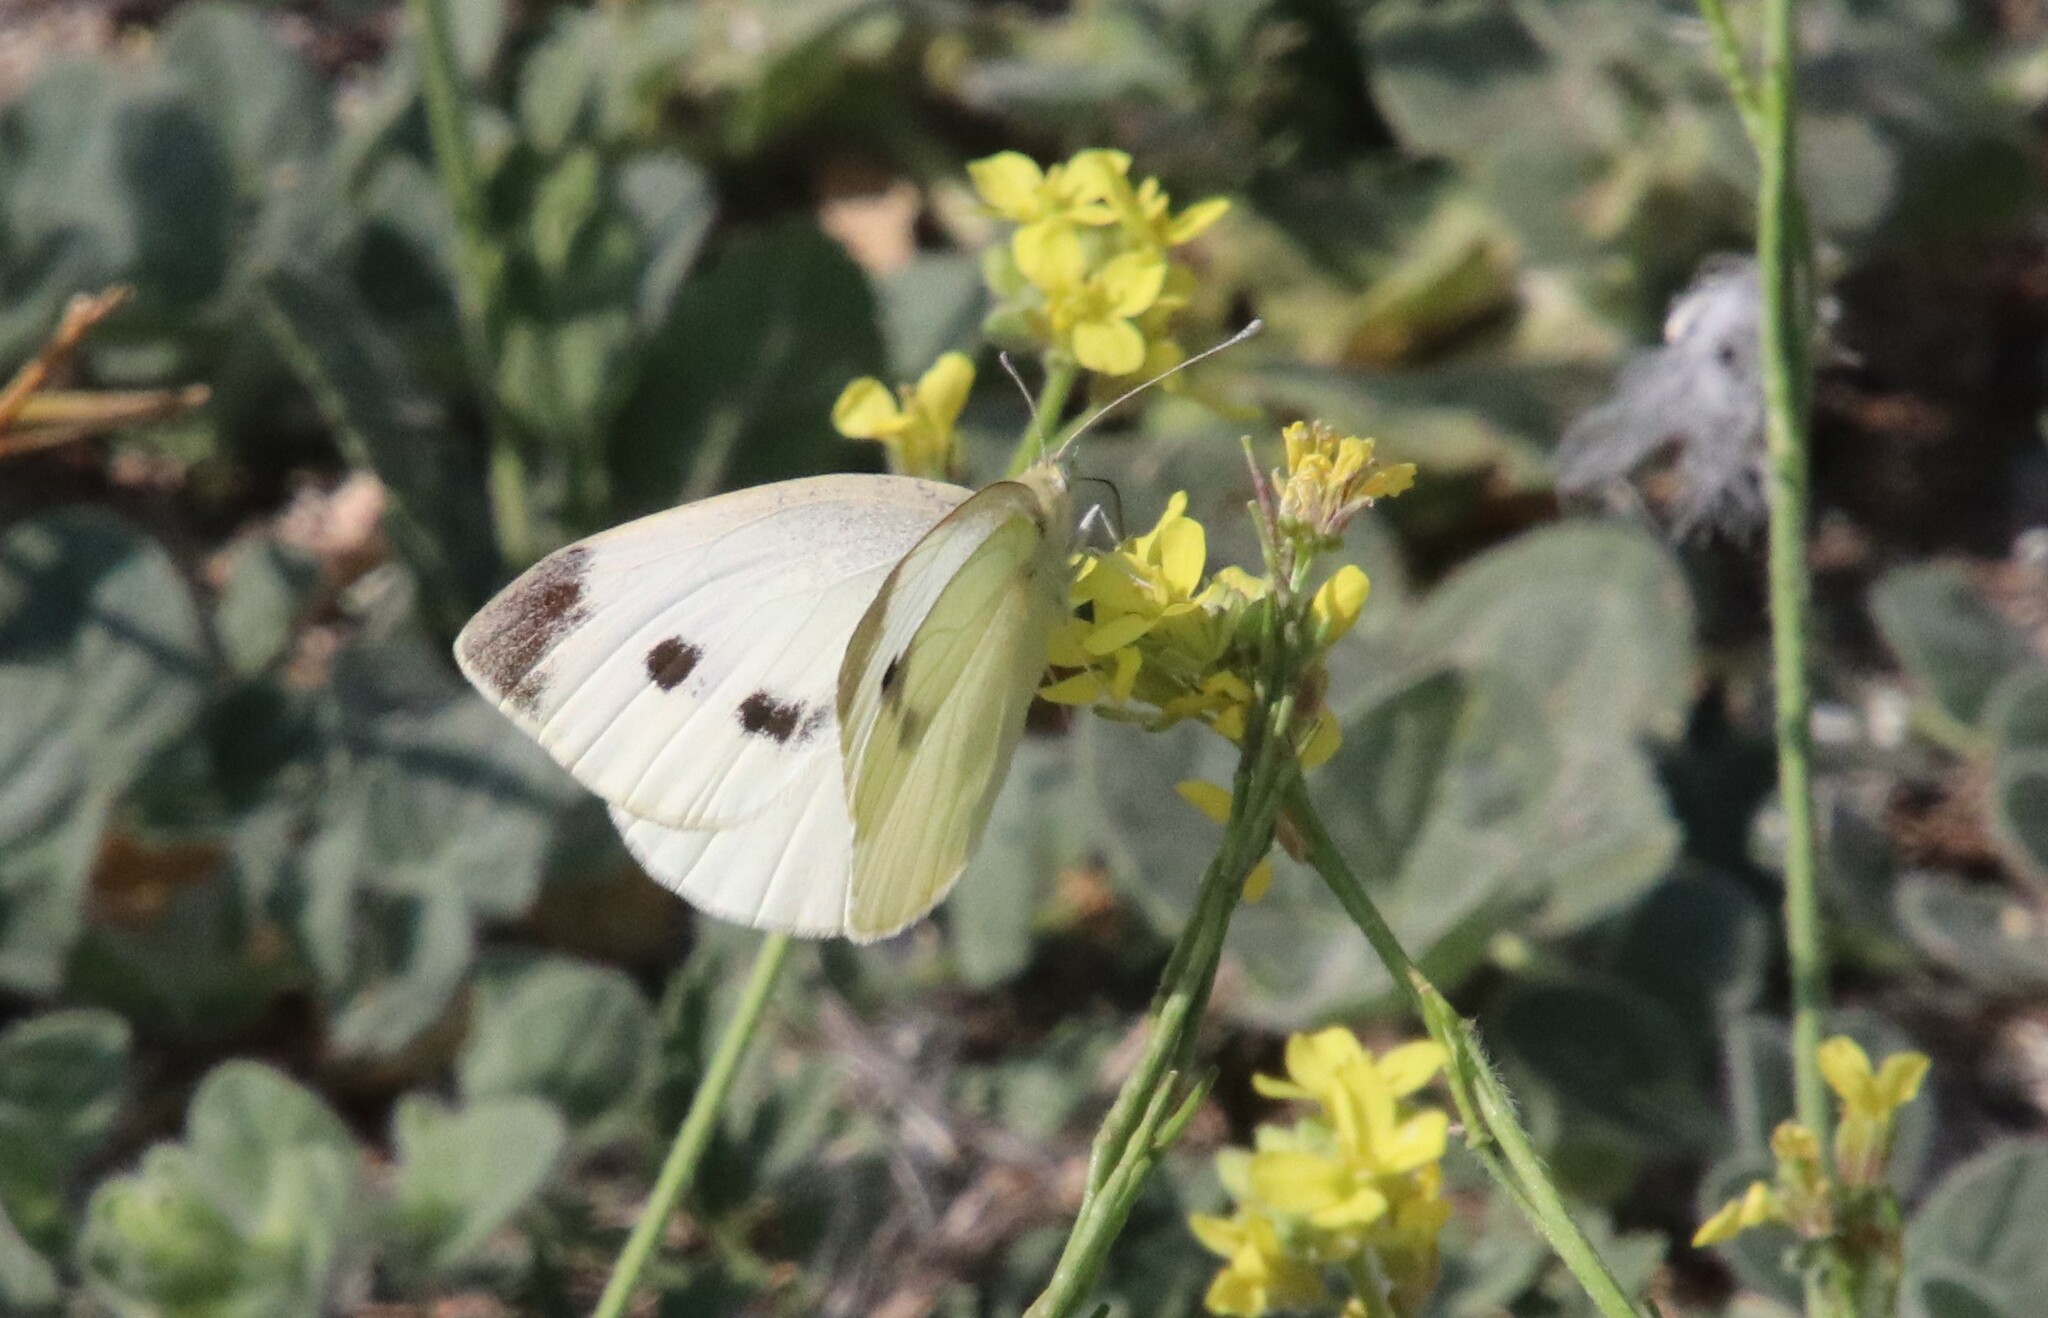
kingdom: Animalia
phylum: Arthropoda
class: Insecta
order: Lepidoptera
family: Pieridae
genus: Pieris
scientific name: Pieris rapae
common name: Small white
